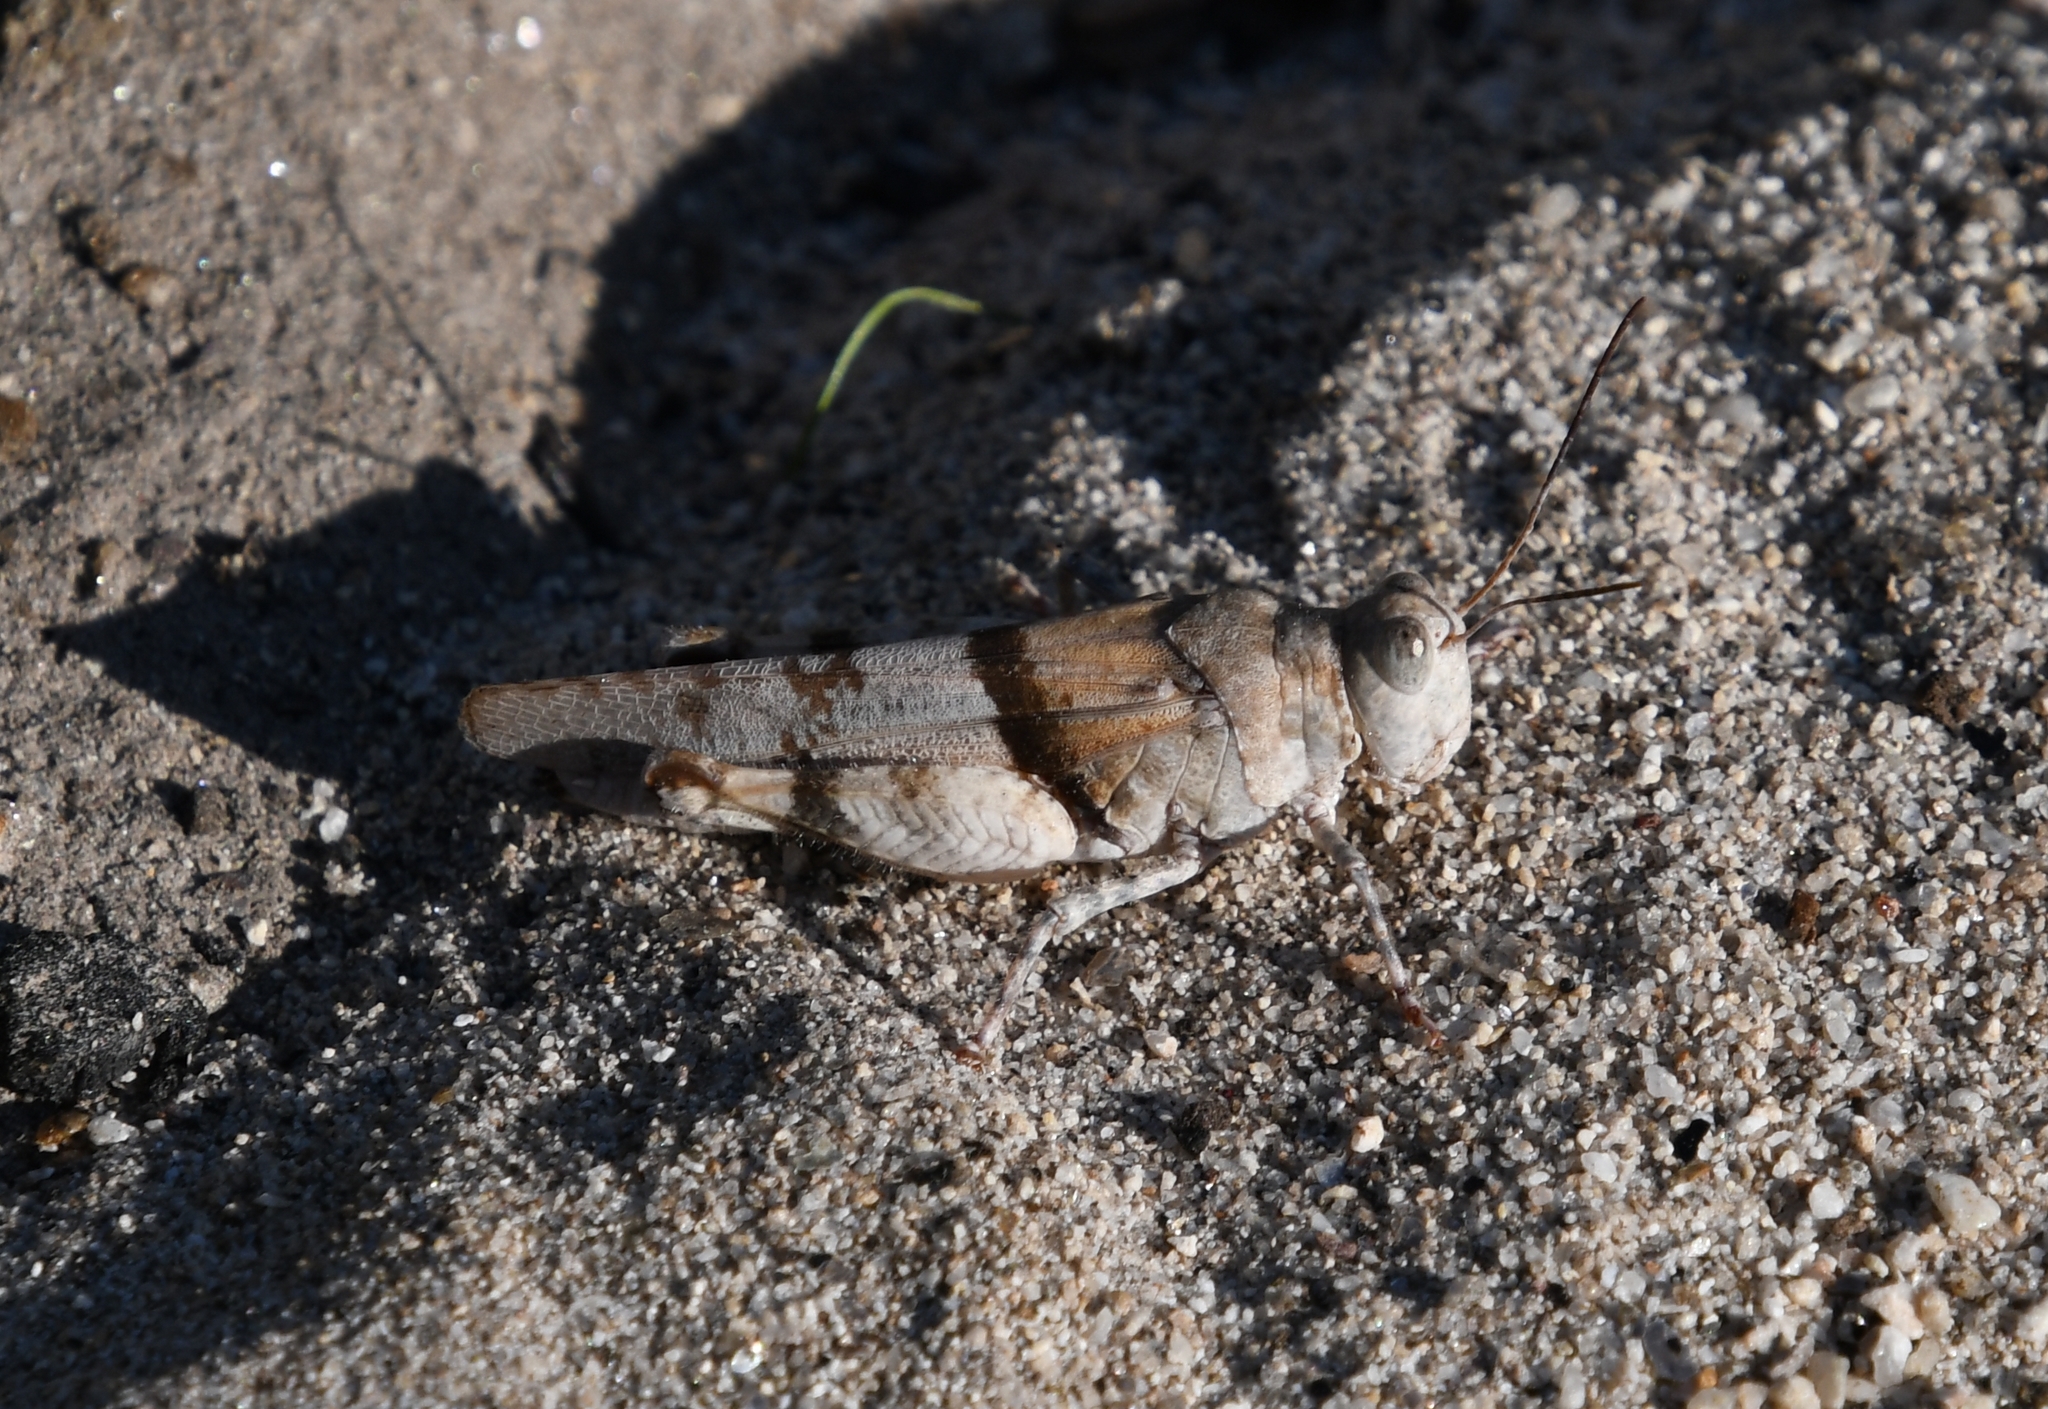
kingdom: Animalia
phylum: Arthropoda
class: Insecta
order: Orthoptera
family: Acrididae
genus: Heliastus
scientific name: Heliastus benjamini
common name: Arroyo grasshopper
